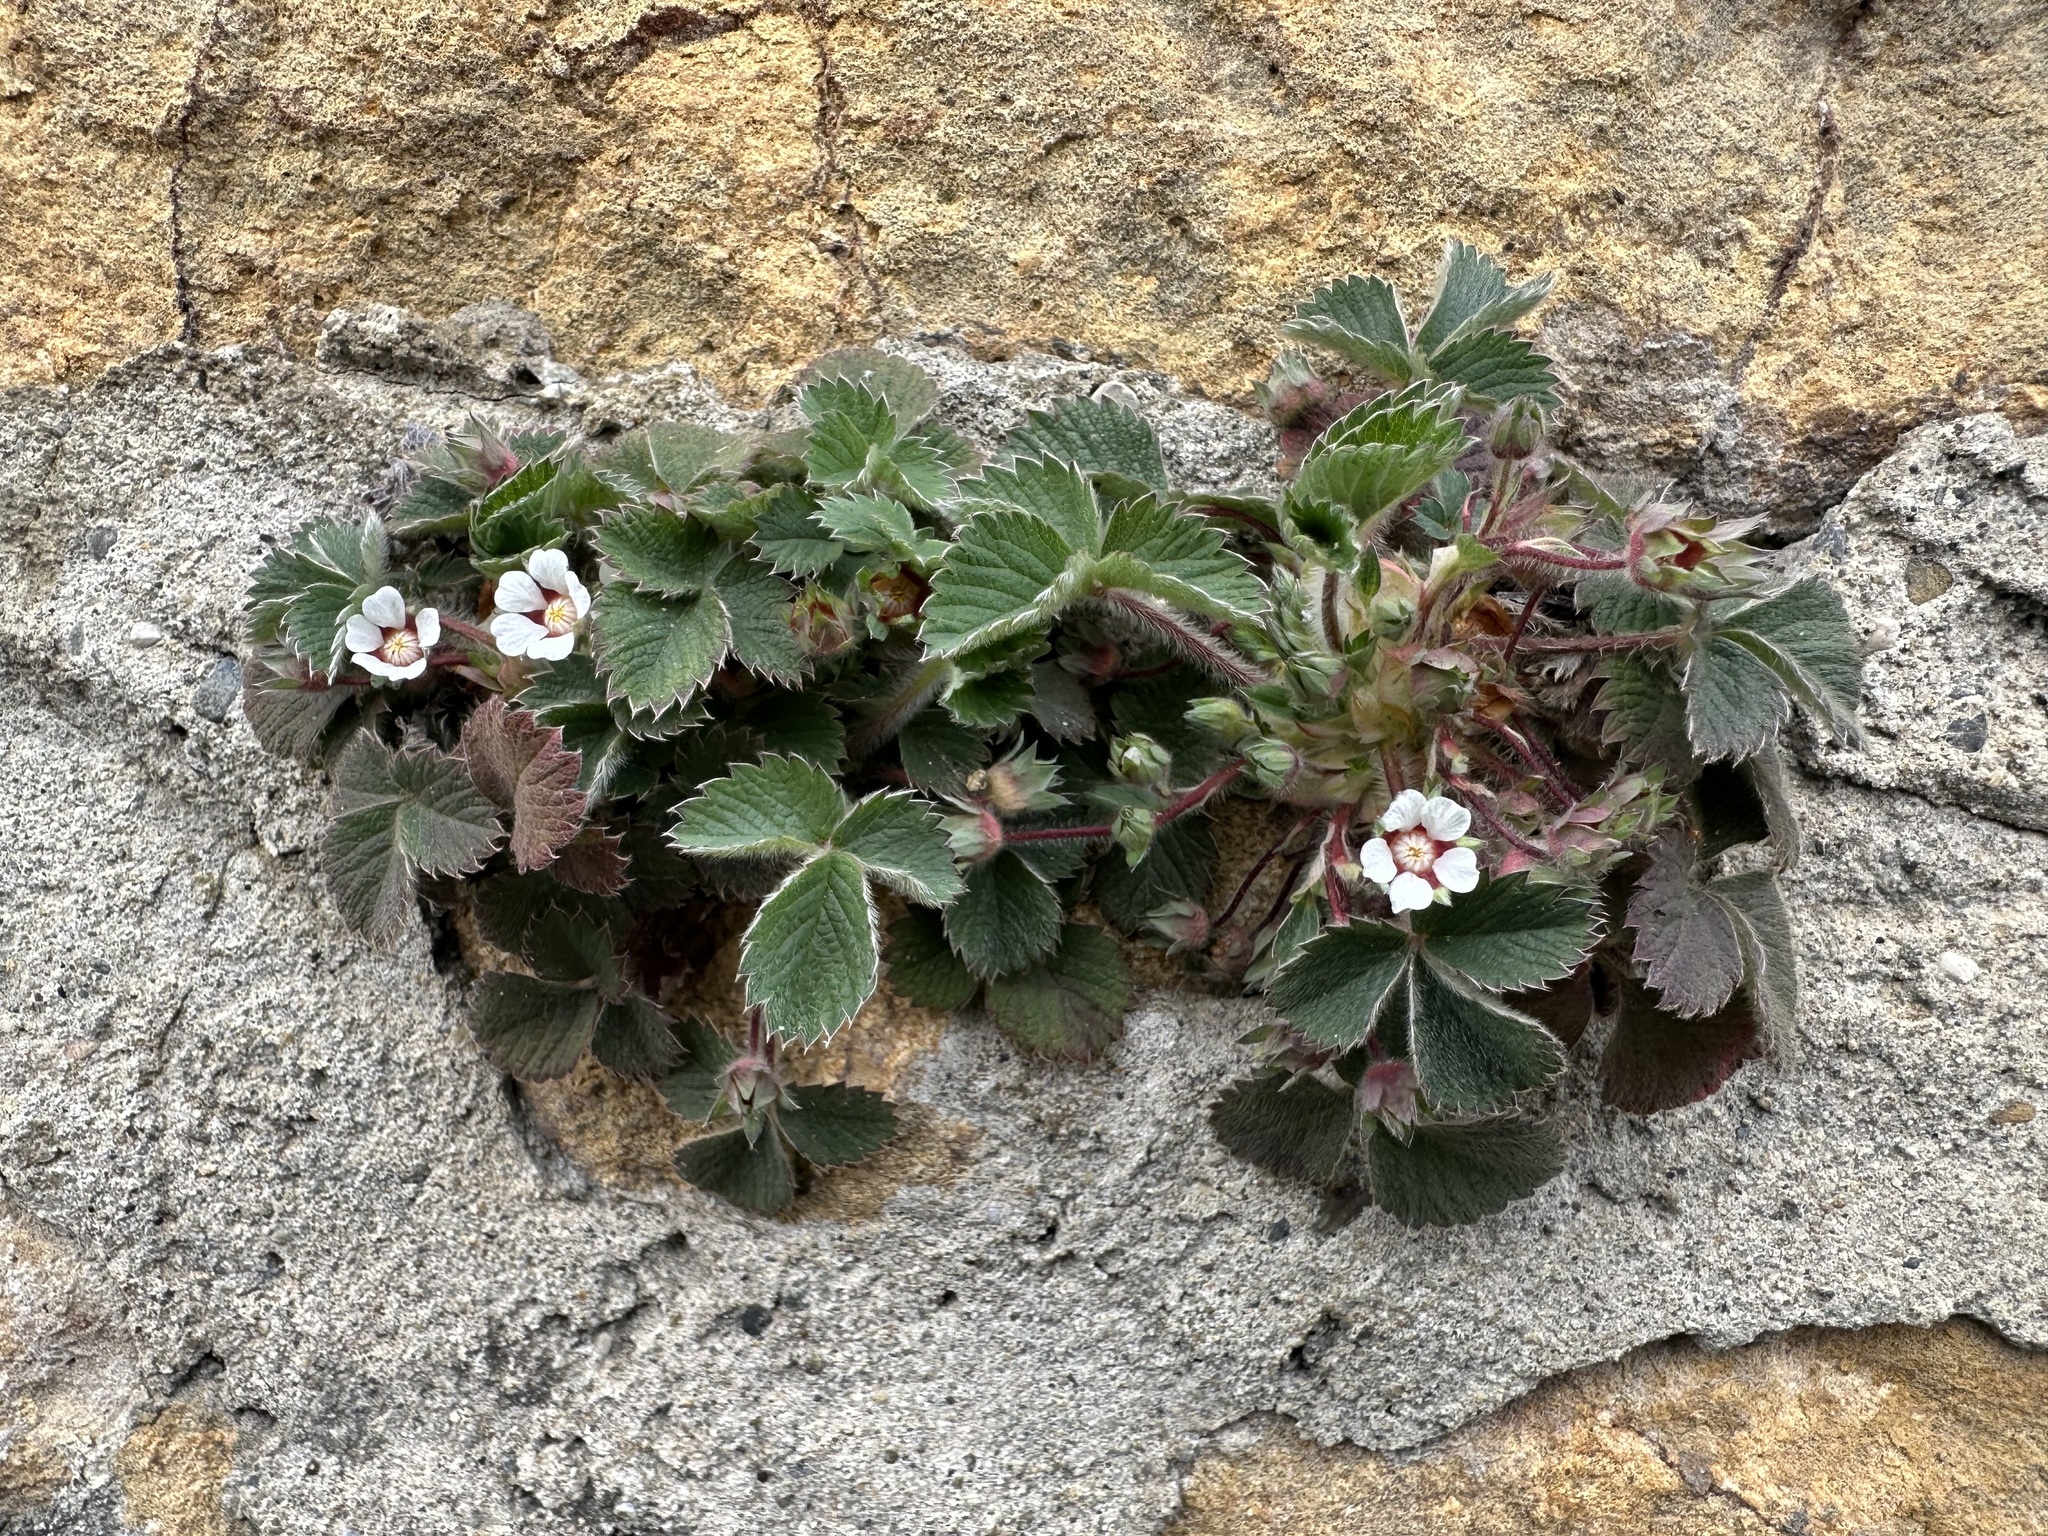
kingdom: Plantae
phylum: Tracheophyta
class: Magnoliopsida
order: Rosales
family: Rosaceae
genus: Potentilla
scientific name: Potentilla micrantha
